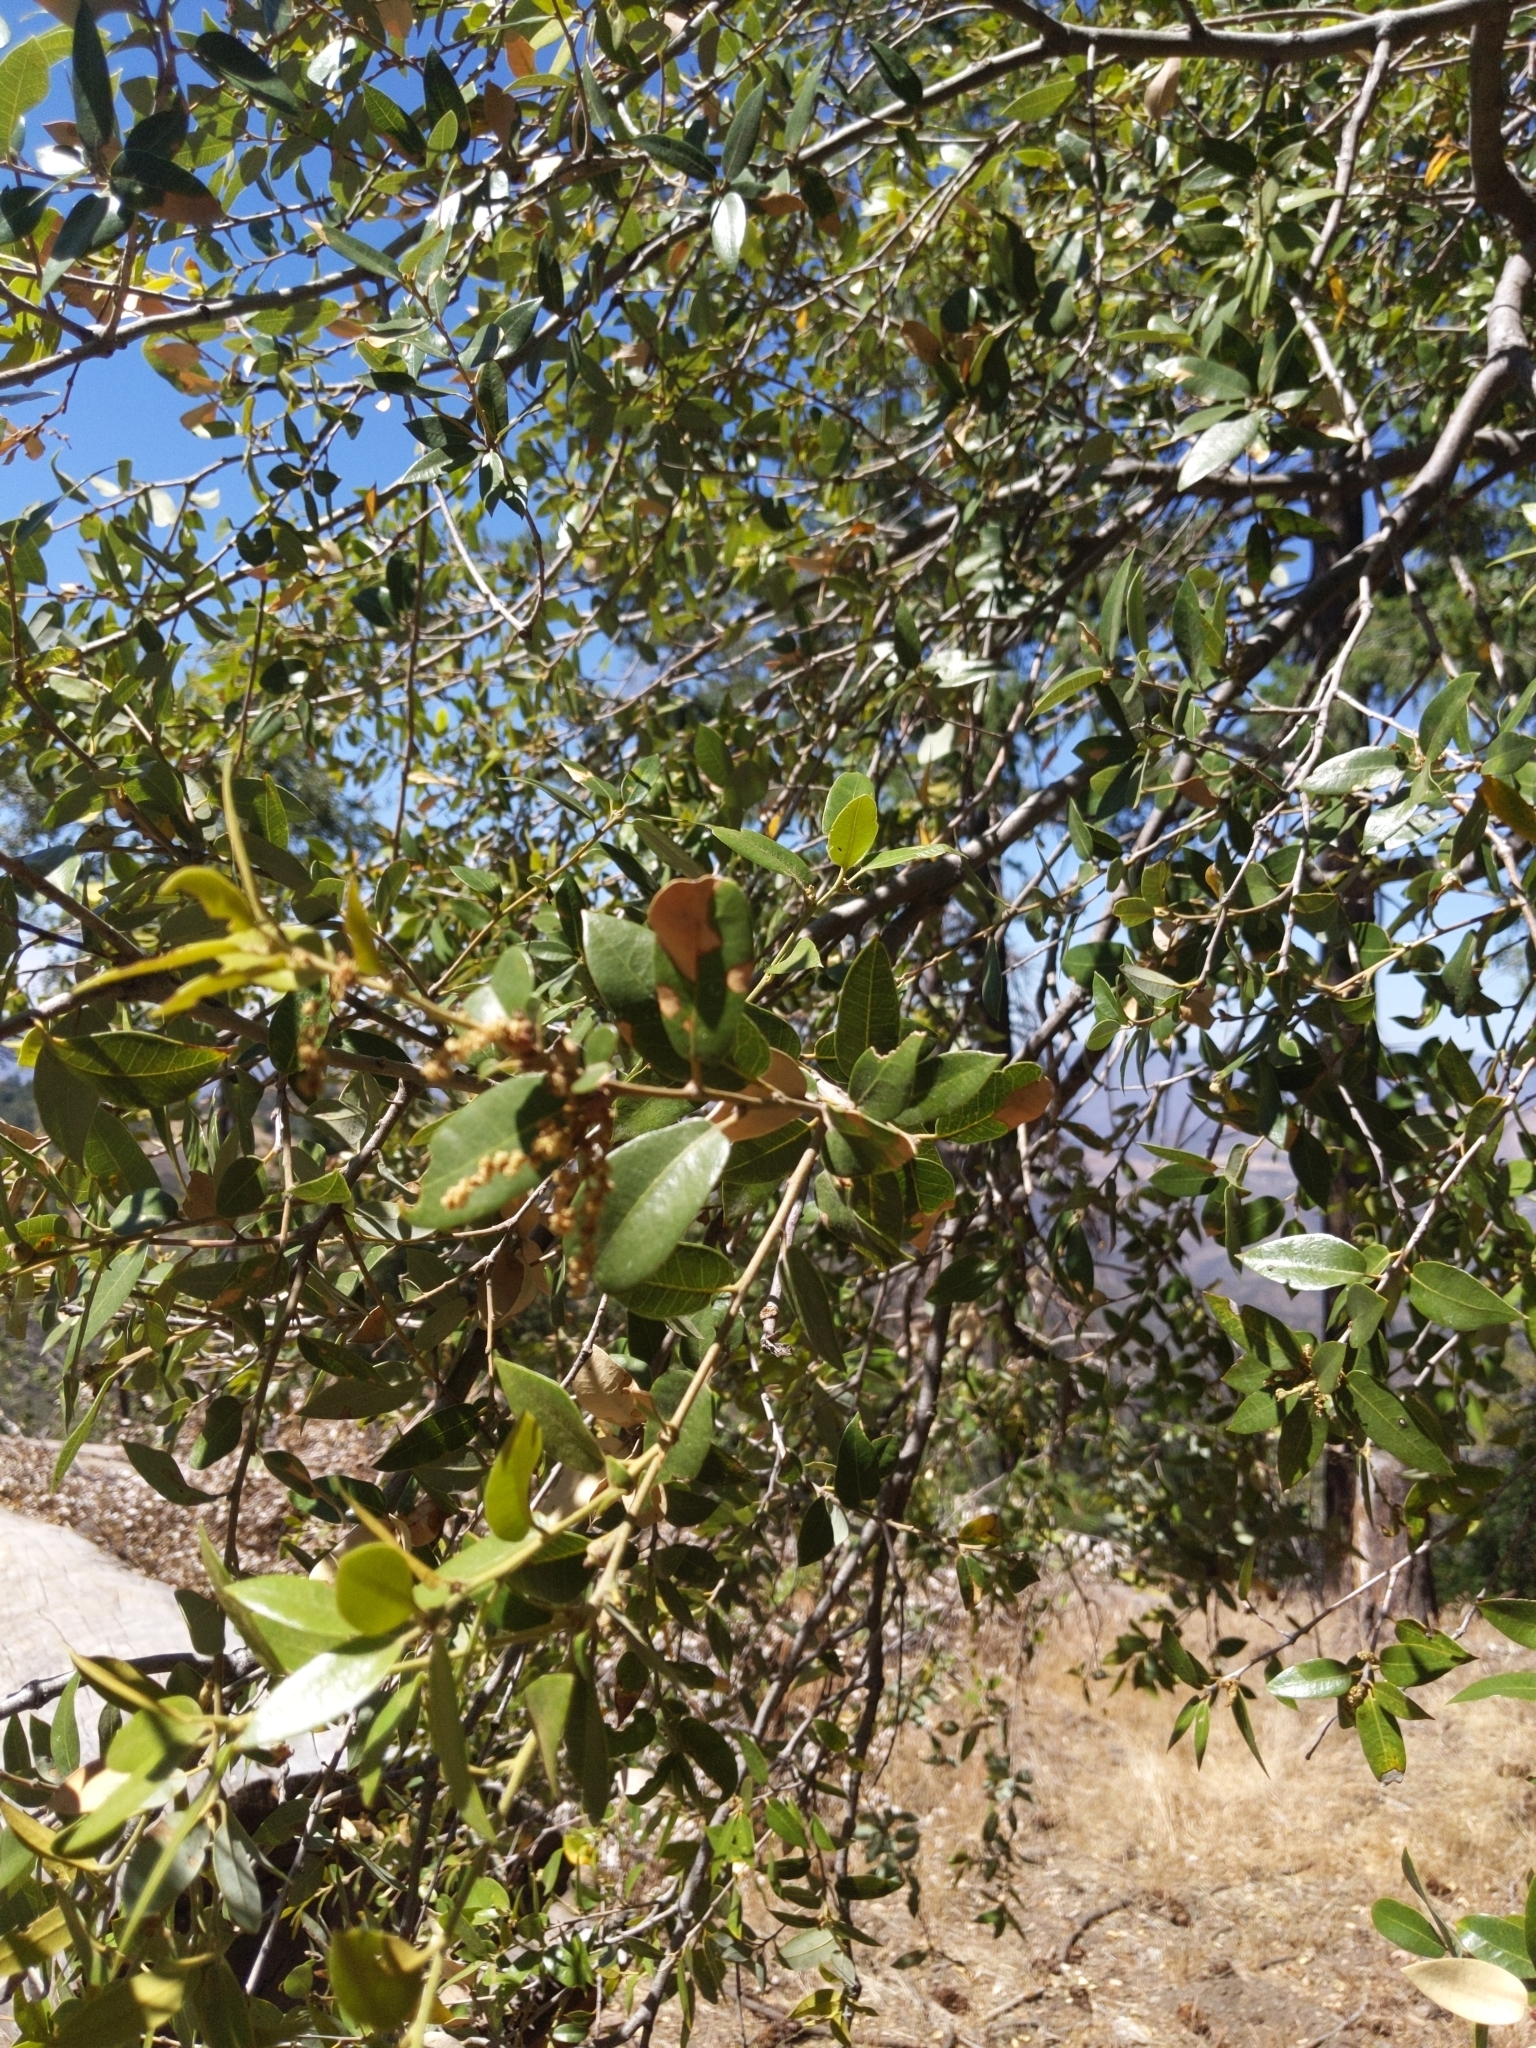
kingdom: Plantae
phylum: Tracheophyta
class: Magnoliopsida
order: Fagales
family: Fagaceae
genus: Quercus
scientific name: Quercus chrysolepis
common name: Canyon live oak
